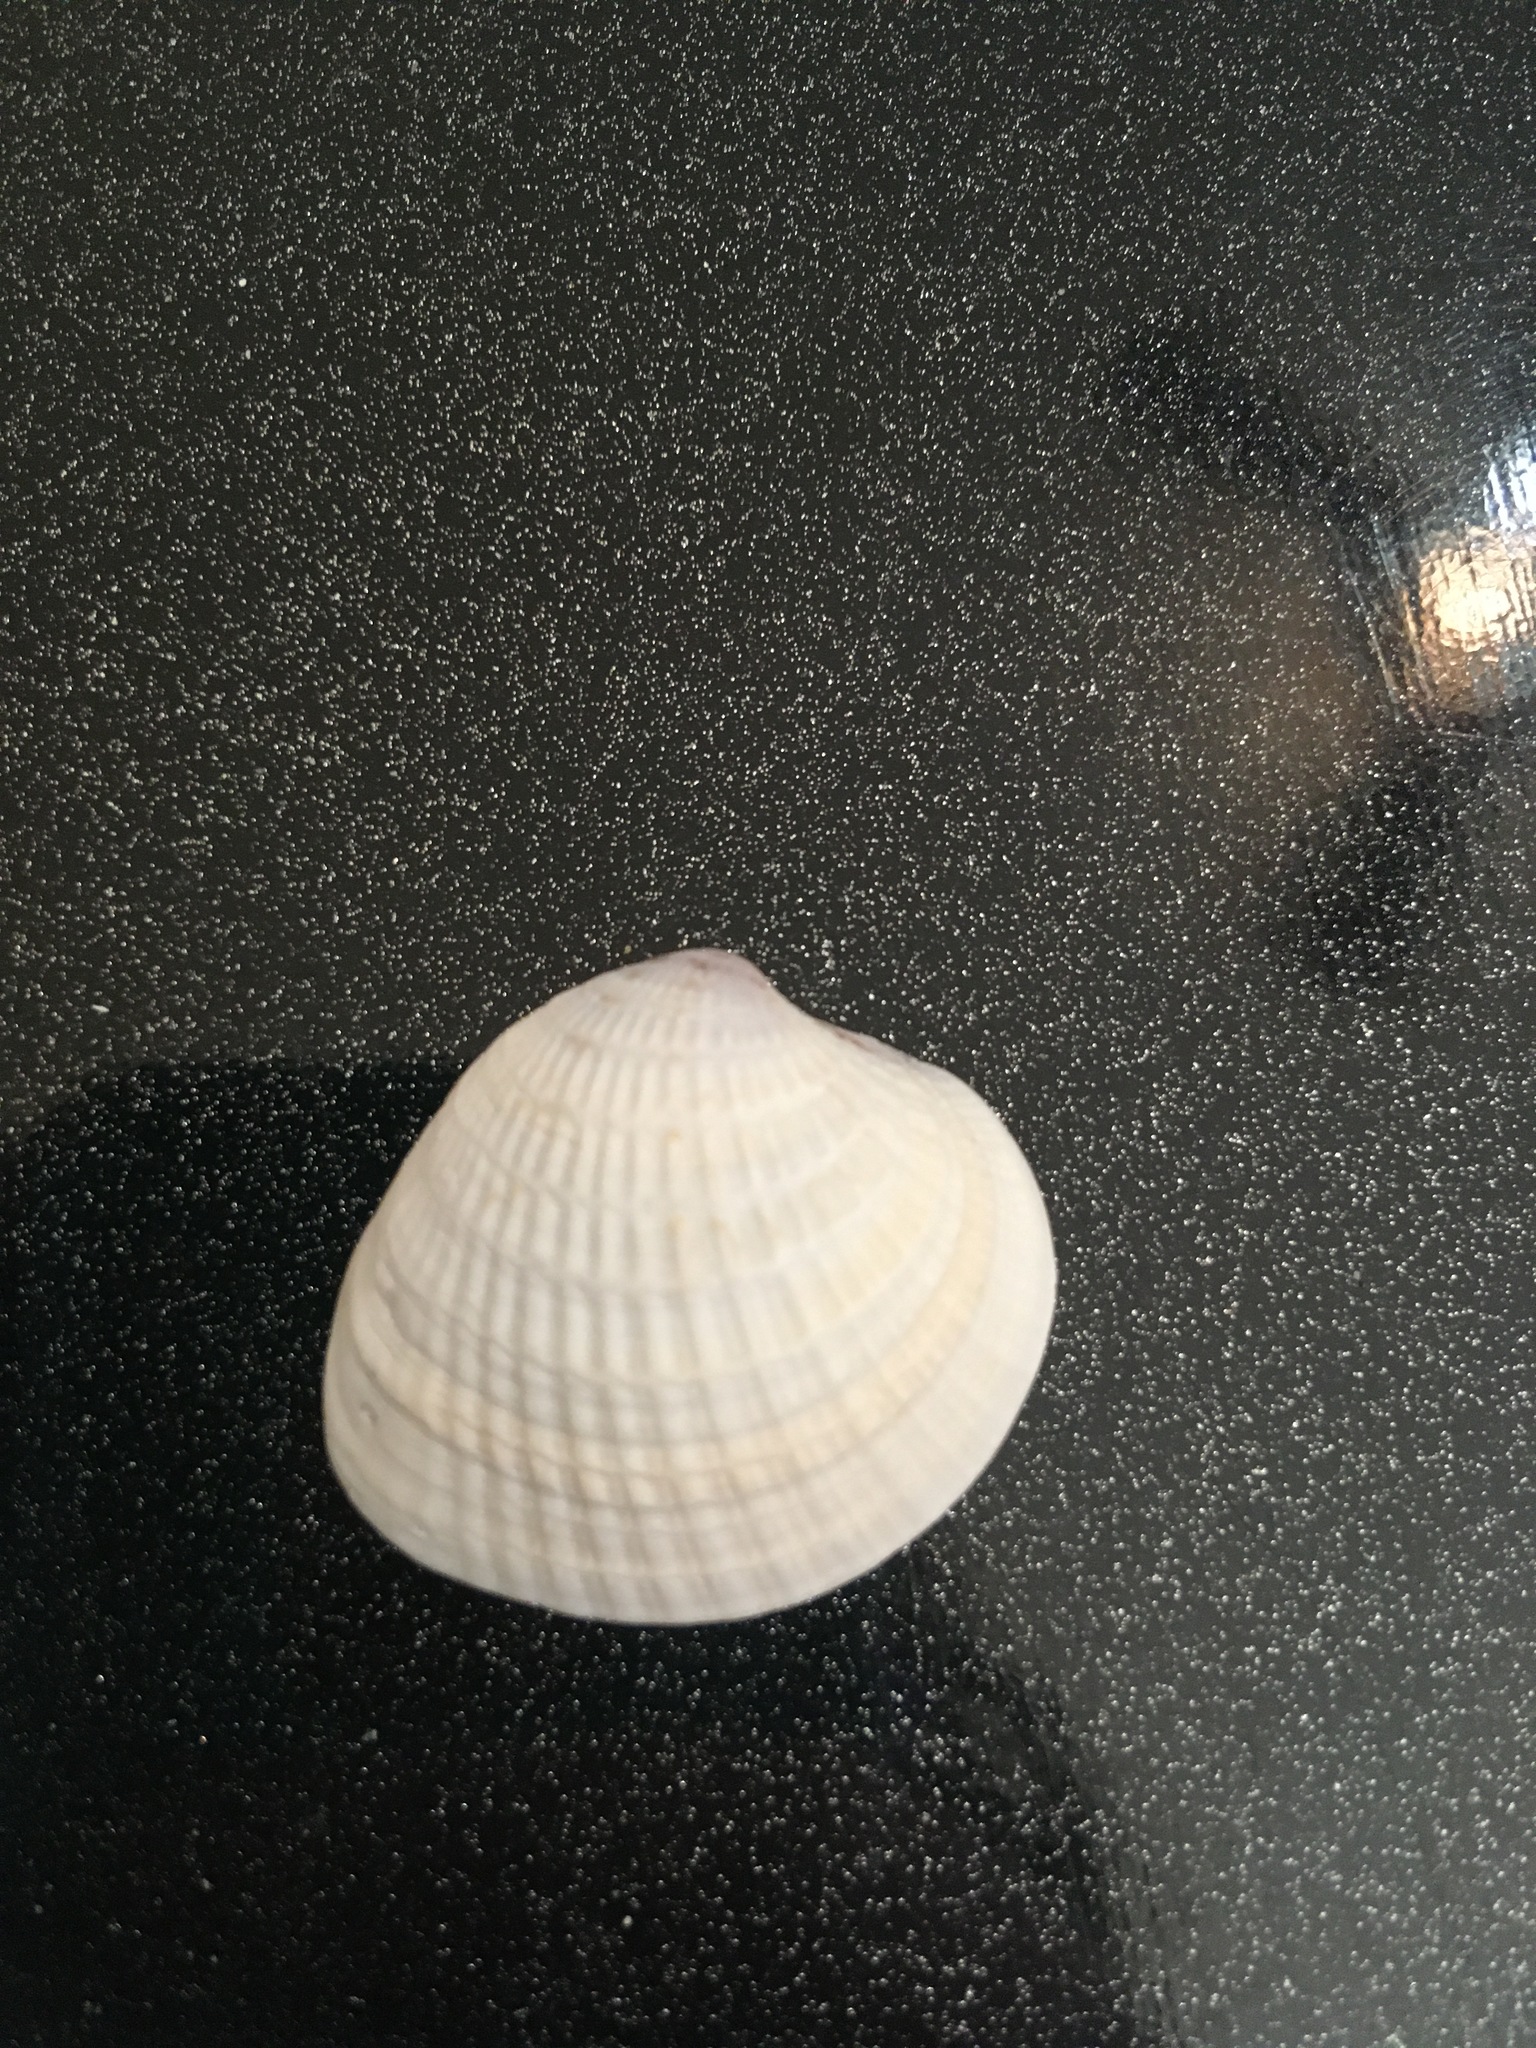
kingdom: Animalia
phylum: Mollusca
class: Bivalvia
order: Venerida
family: Veneridae
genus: Chione
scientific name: Chione elevata
